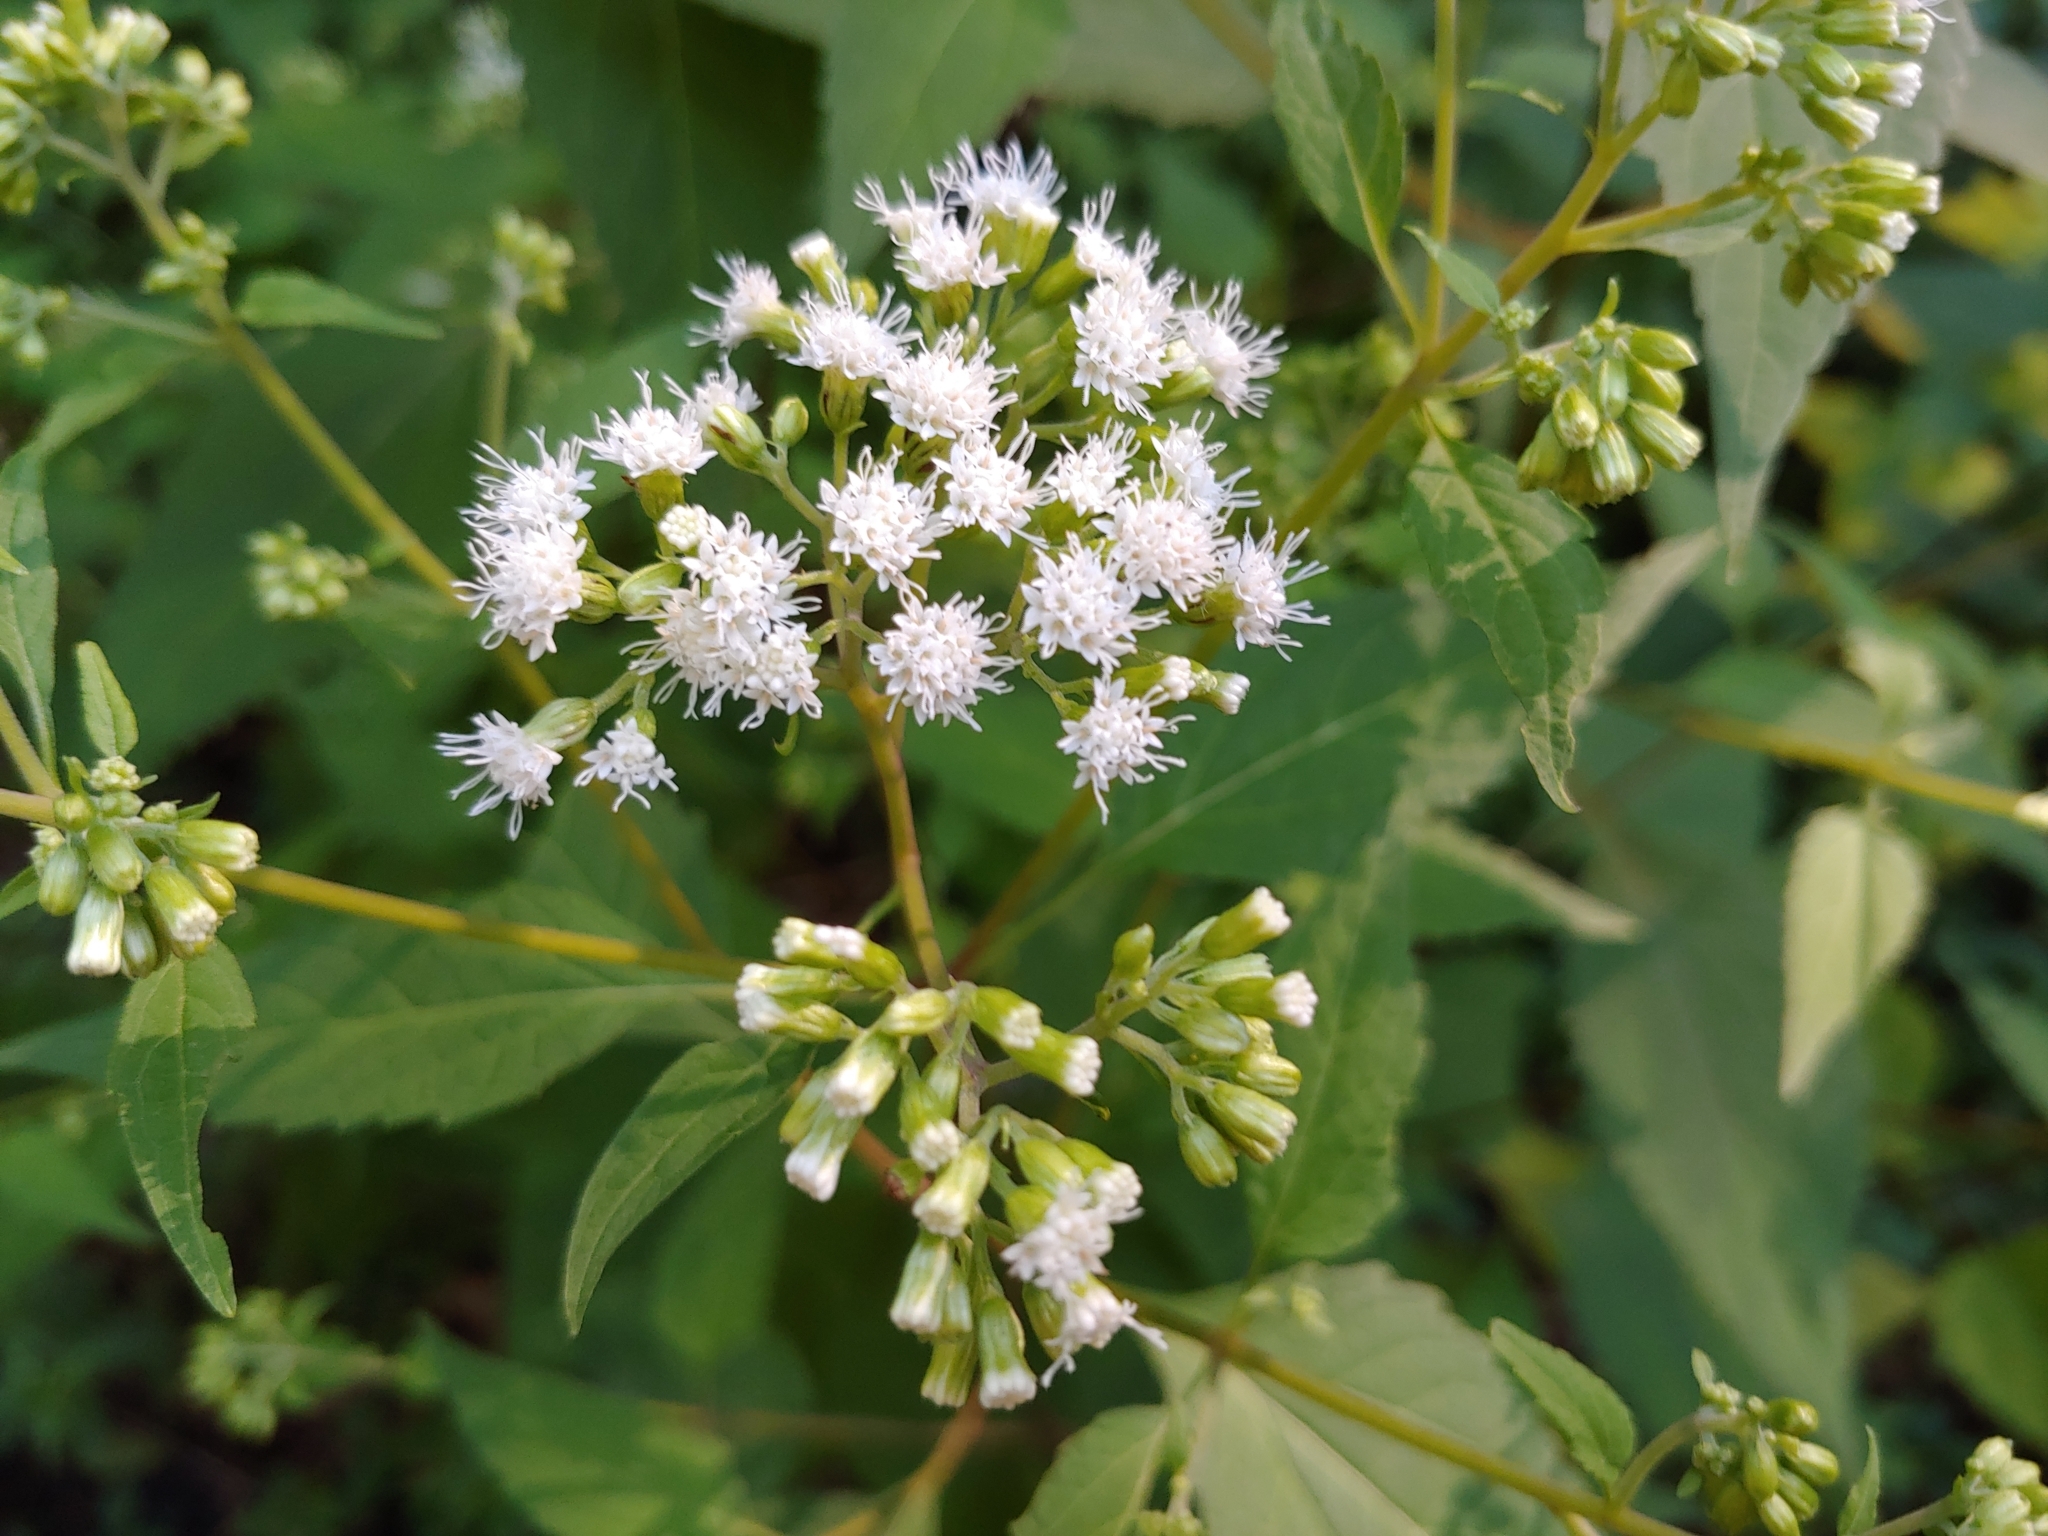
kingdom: Plantae
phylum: Tracheophyta
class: Magnoliopsida
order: Asterales
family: Asteraceae
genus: Ageratina
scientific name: Ageratina altissima
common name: White snakeroot
